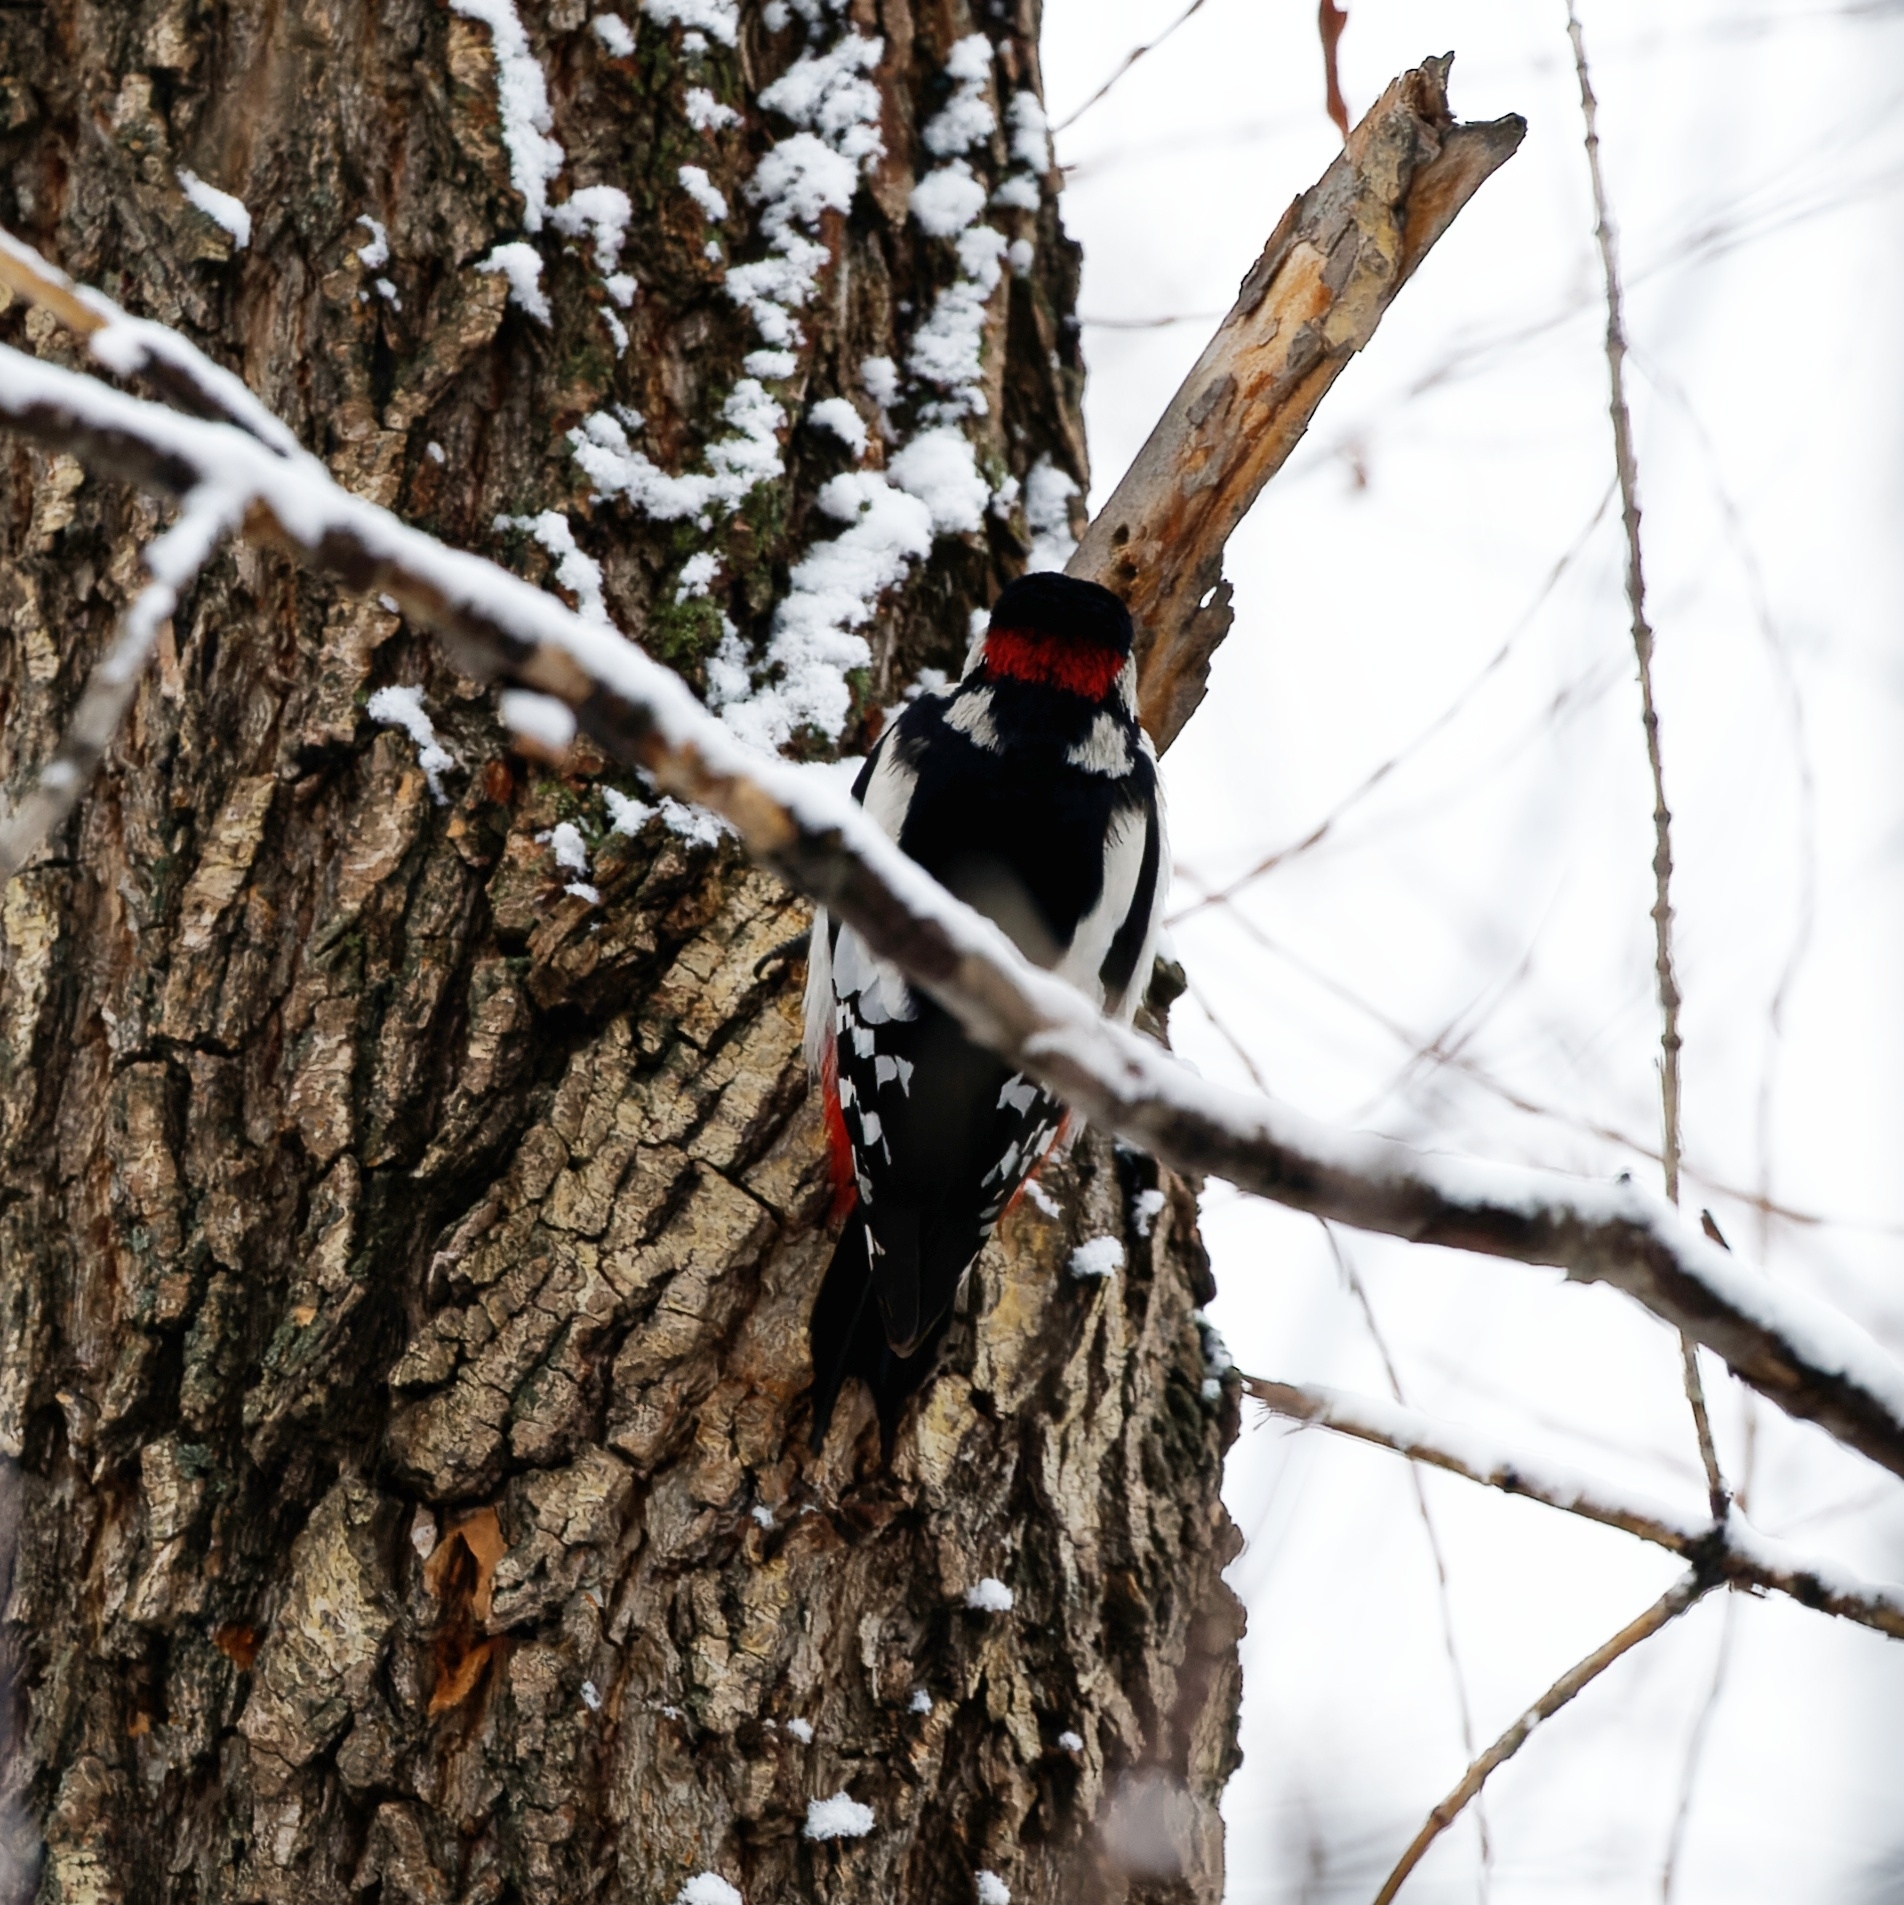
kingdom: Animalia
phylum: Chordata
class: Aves
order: Piciformes
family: Picidae
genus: Dendrocopos
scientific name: Dendrocopos major
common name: Great spotted woodpecker
